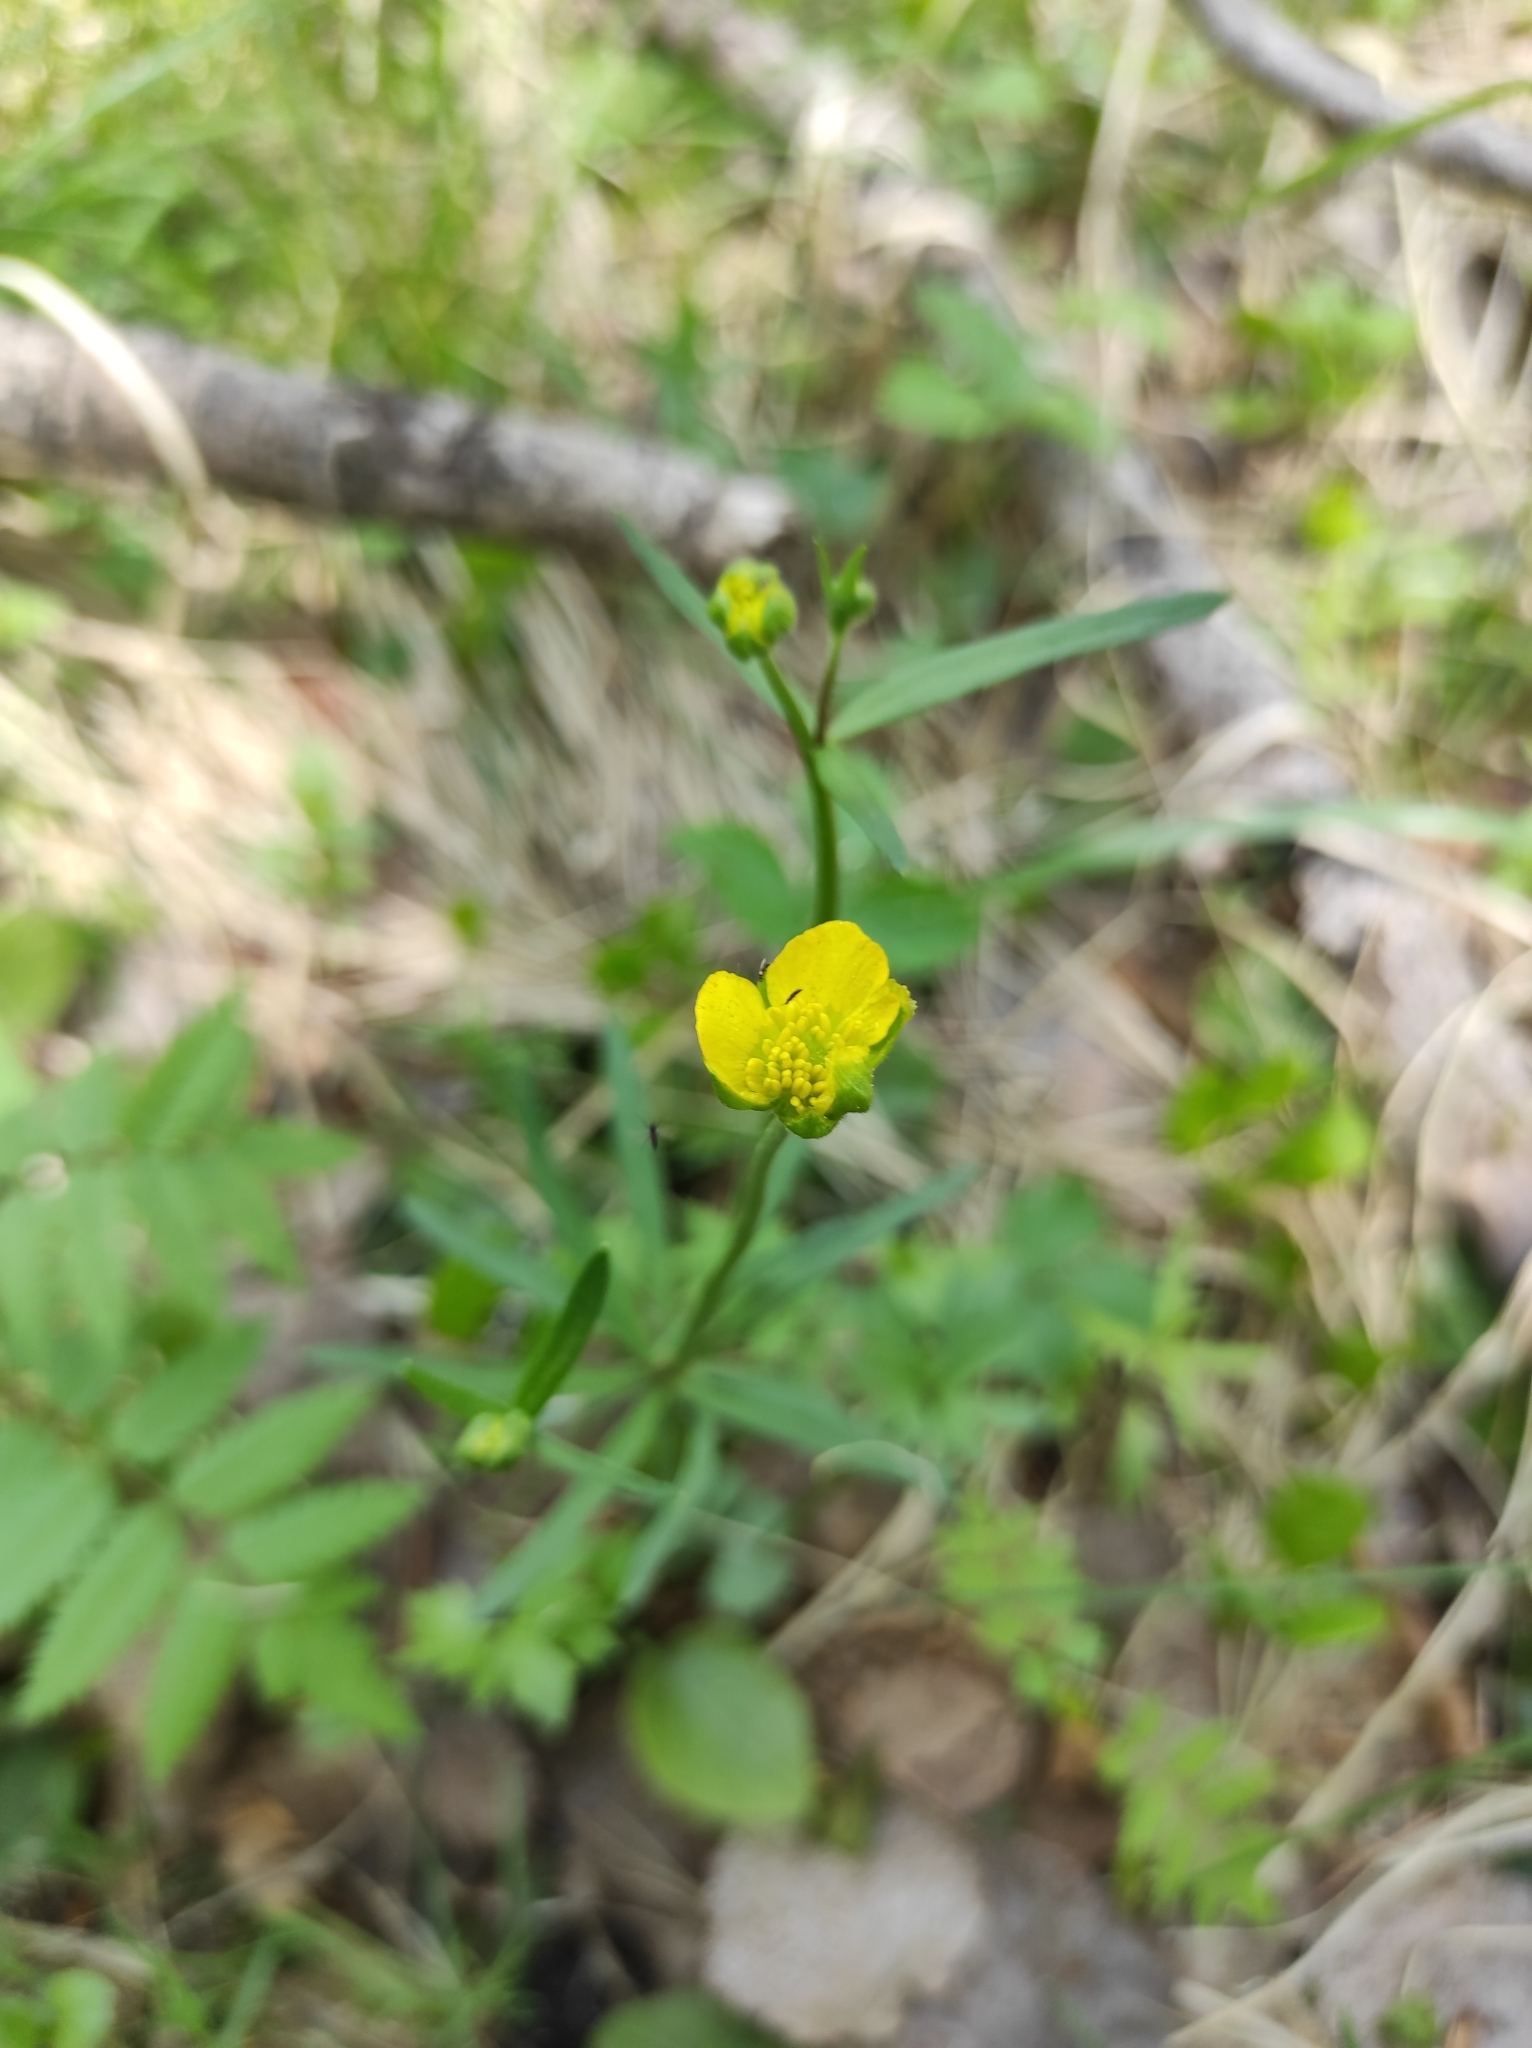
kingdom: Plantae
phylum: Tracheophyta
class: Magnoliopsida
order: Ranunculales
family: Ranunculaceae
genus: Ranunculus
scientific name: Ranunculus auricomus
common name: Goldilocks buttercup
